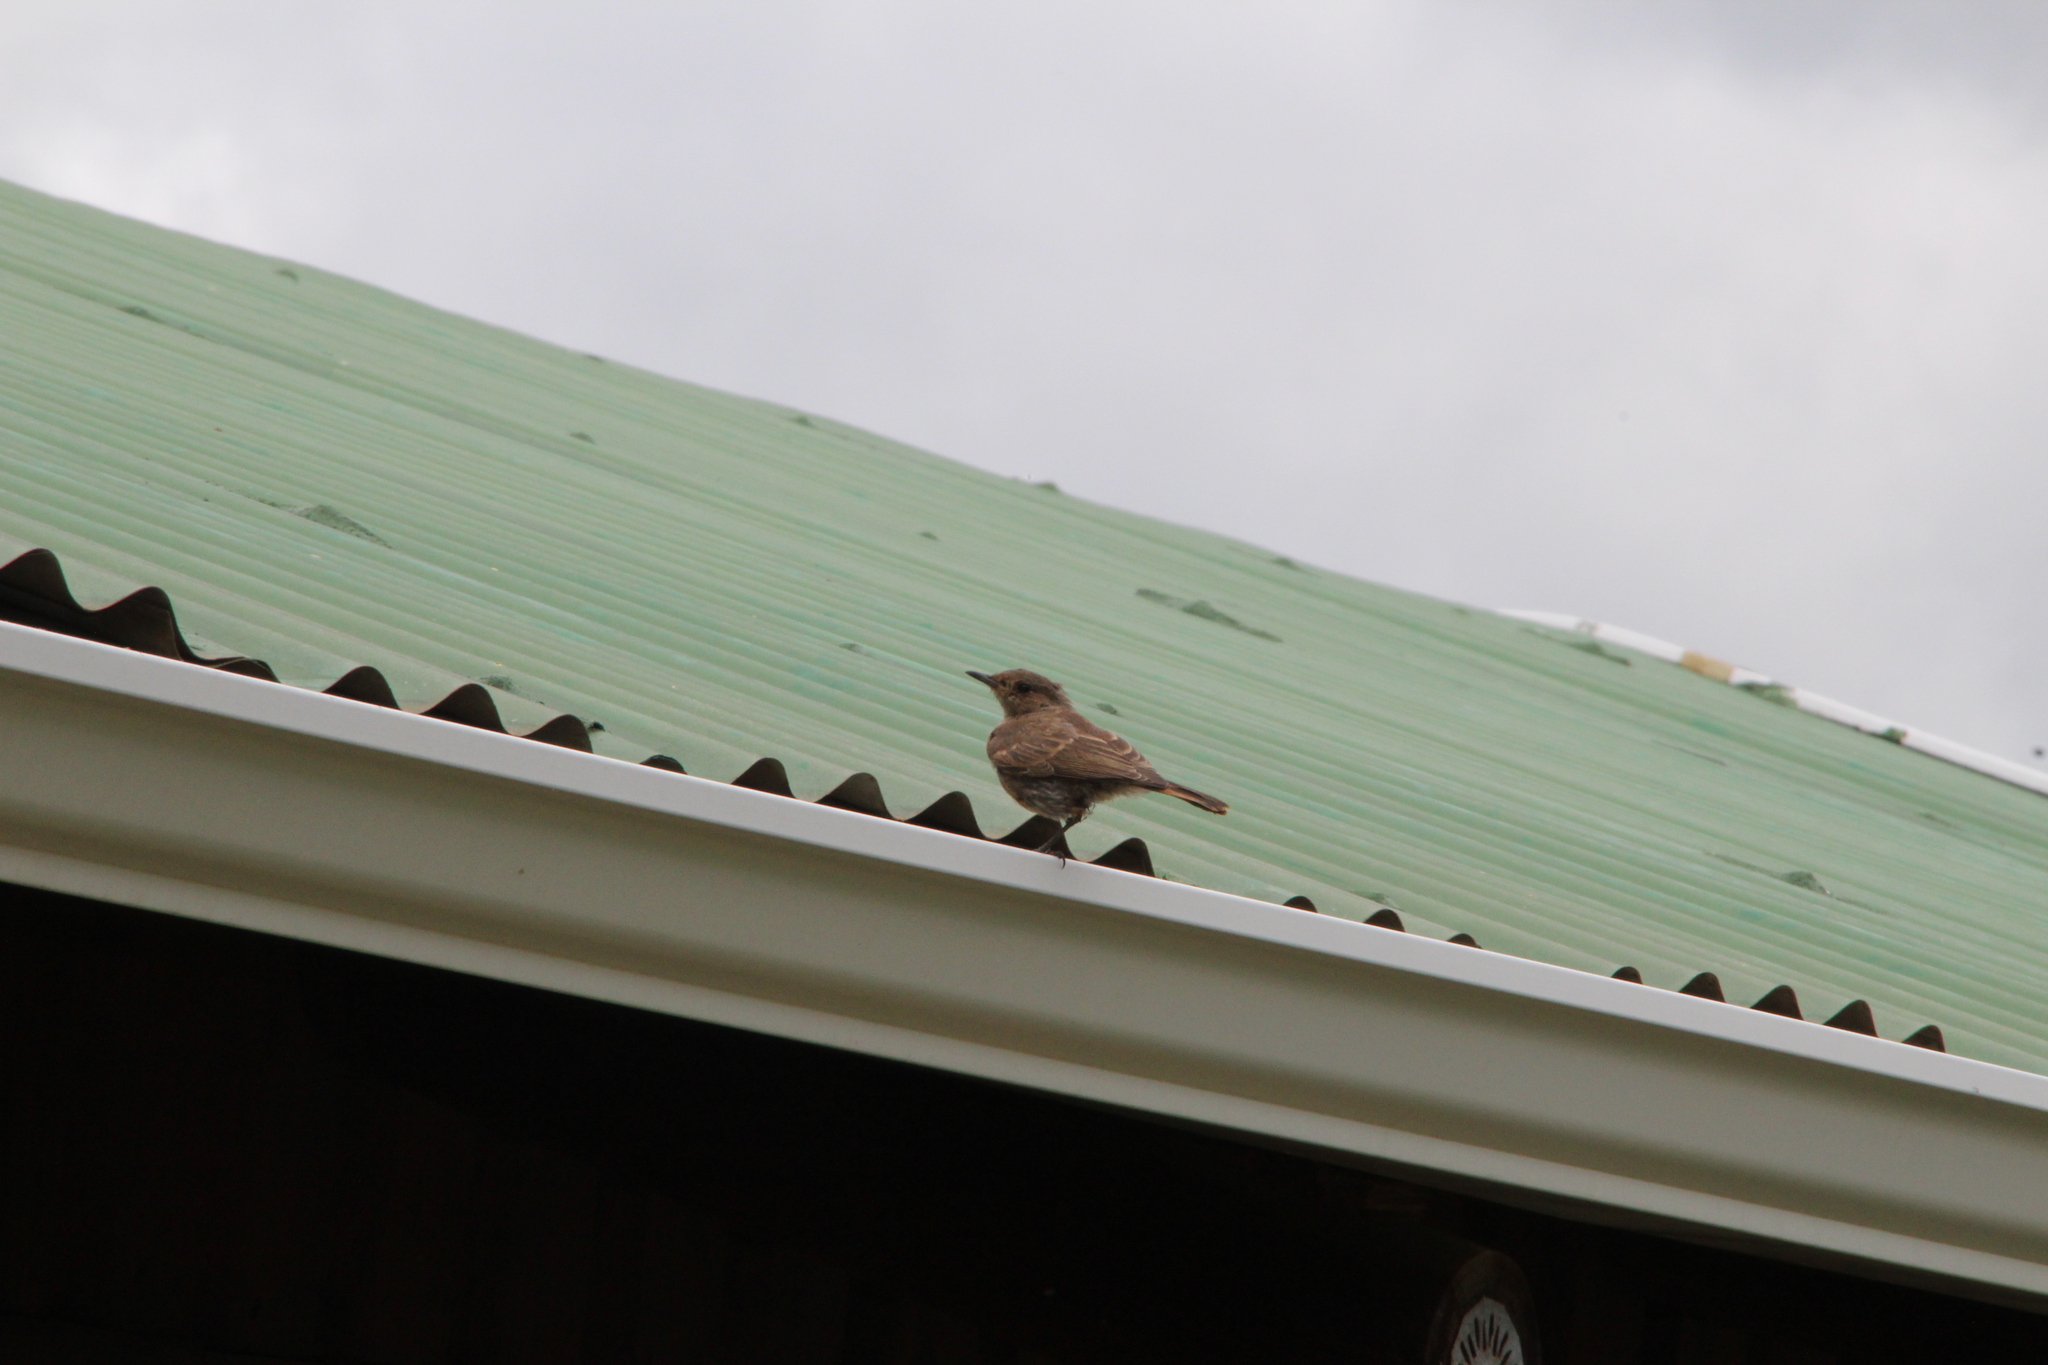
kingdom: Animalia
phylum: Chordata
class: Aves
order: Passeriformes
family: Muscicapidae
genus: Oenanthe
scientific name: Oenanthe familiaris
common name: Familiar chat
